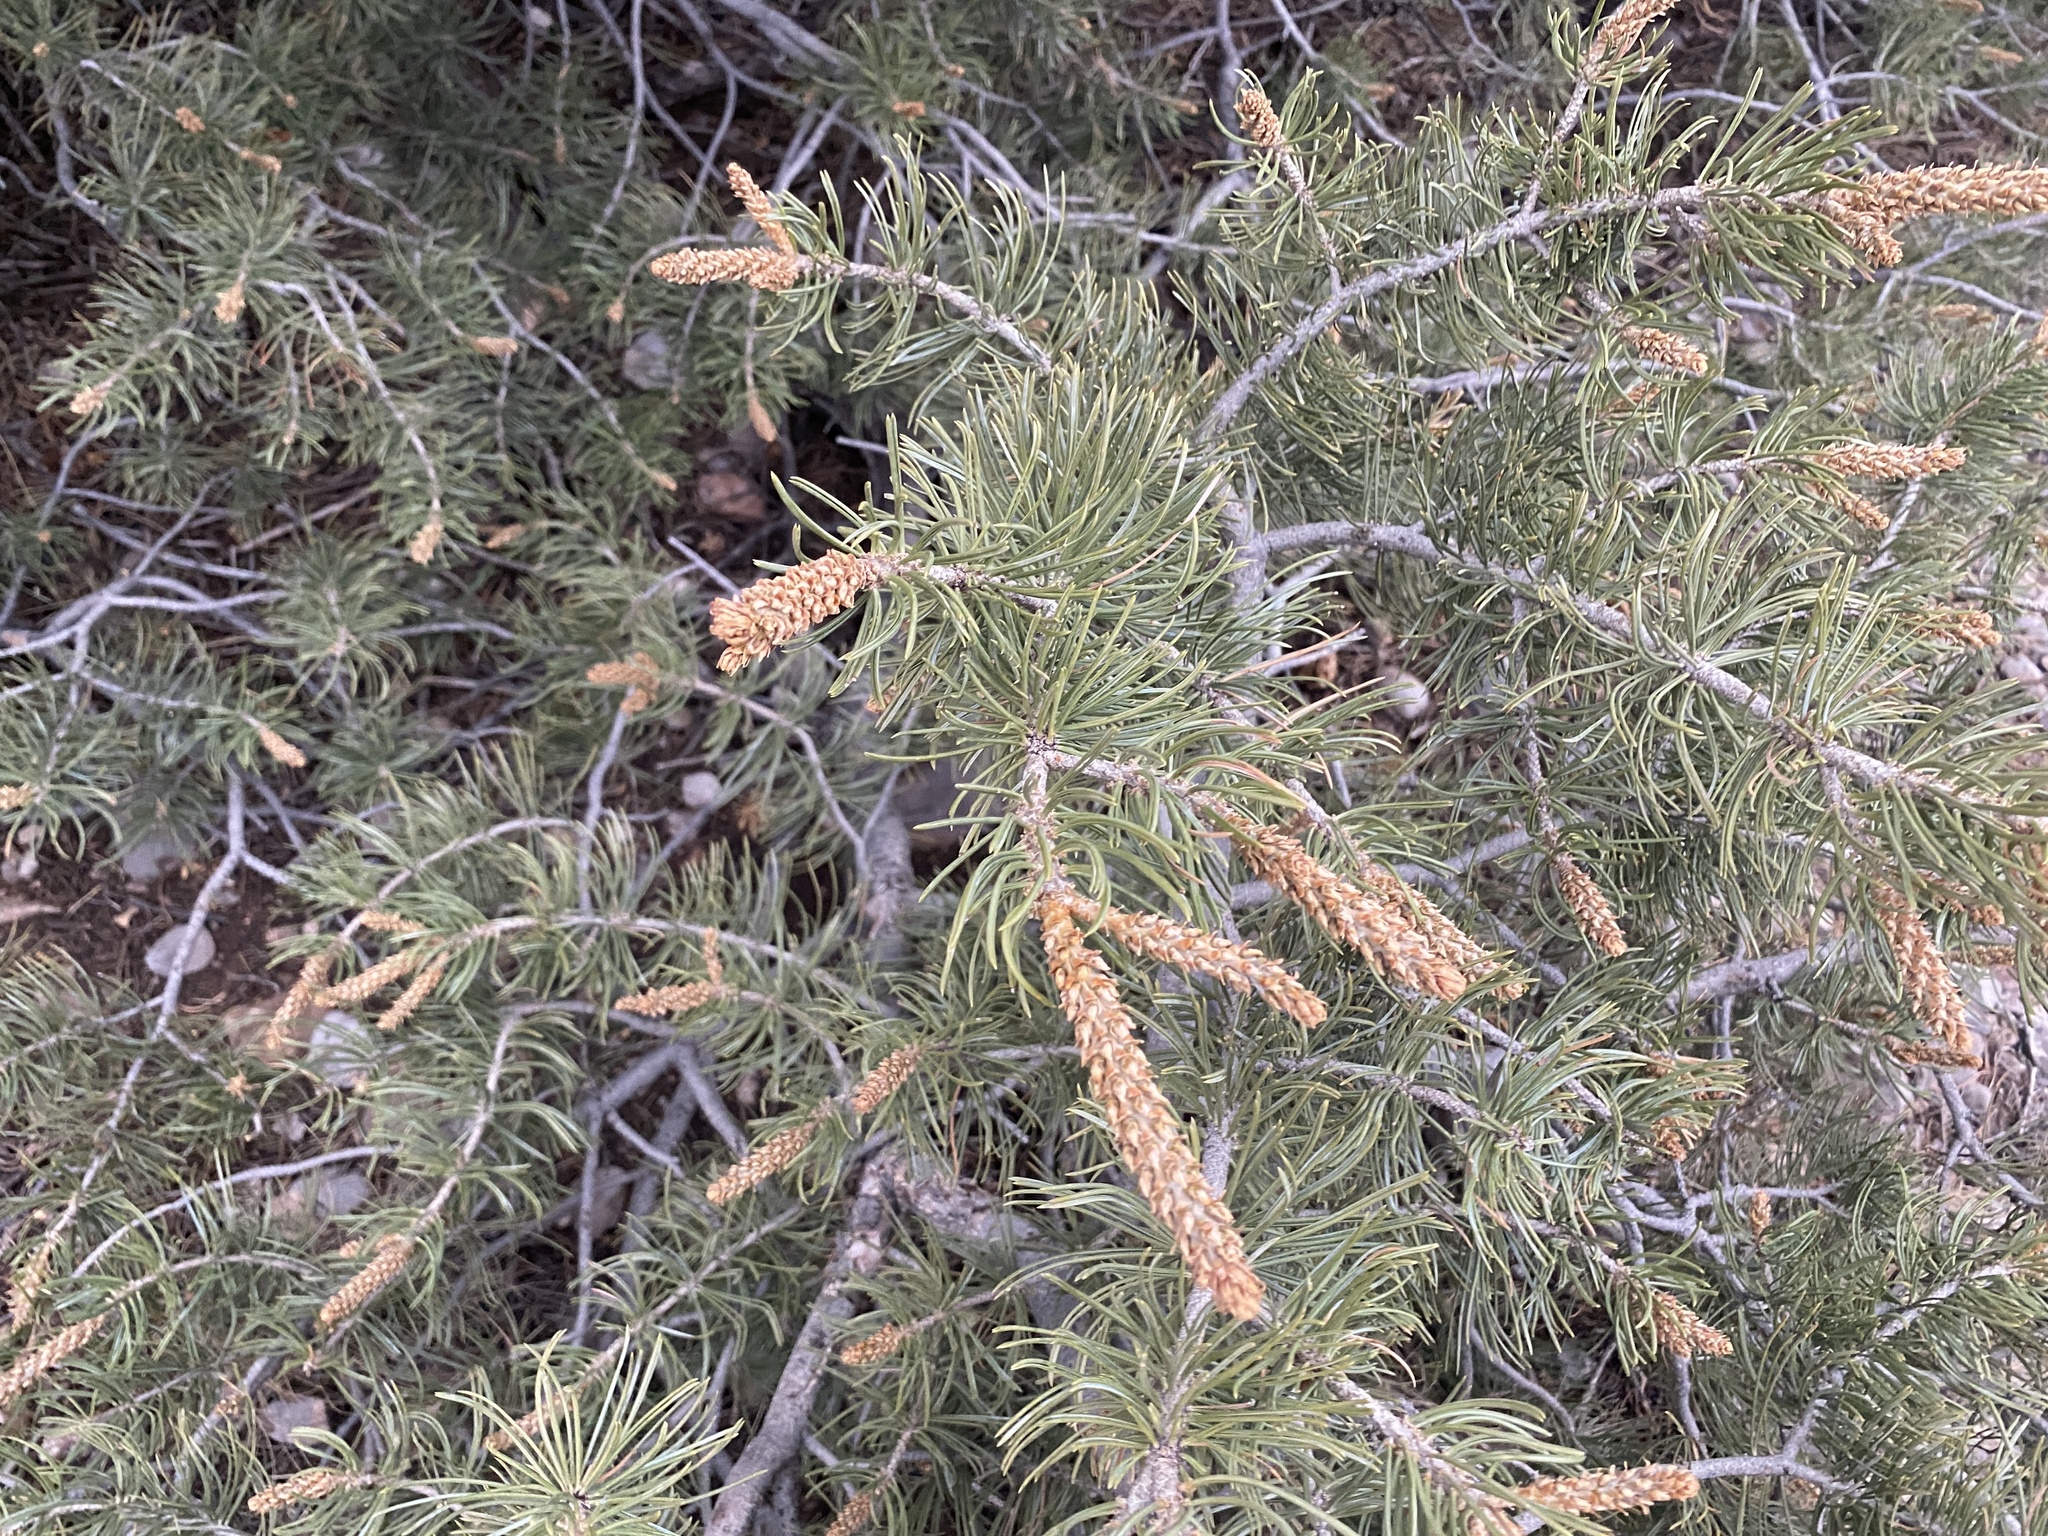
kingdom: Plantae
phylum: Tracheophyta
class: Pinopsida
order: Pinales
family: Pinaceae
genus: Pinus
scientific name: Pinus edulis
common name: Colorado pinyon
